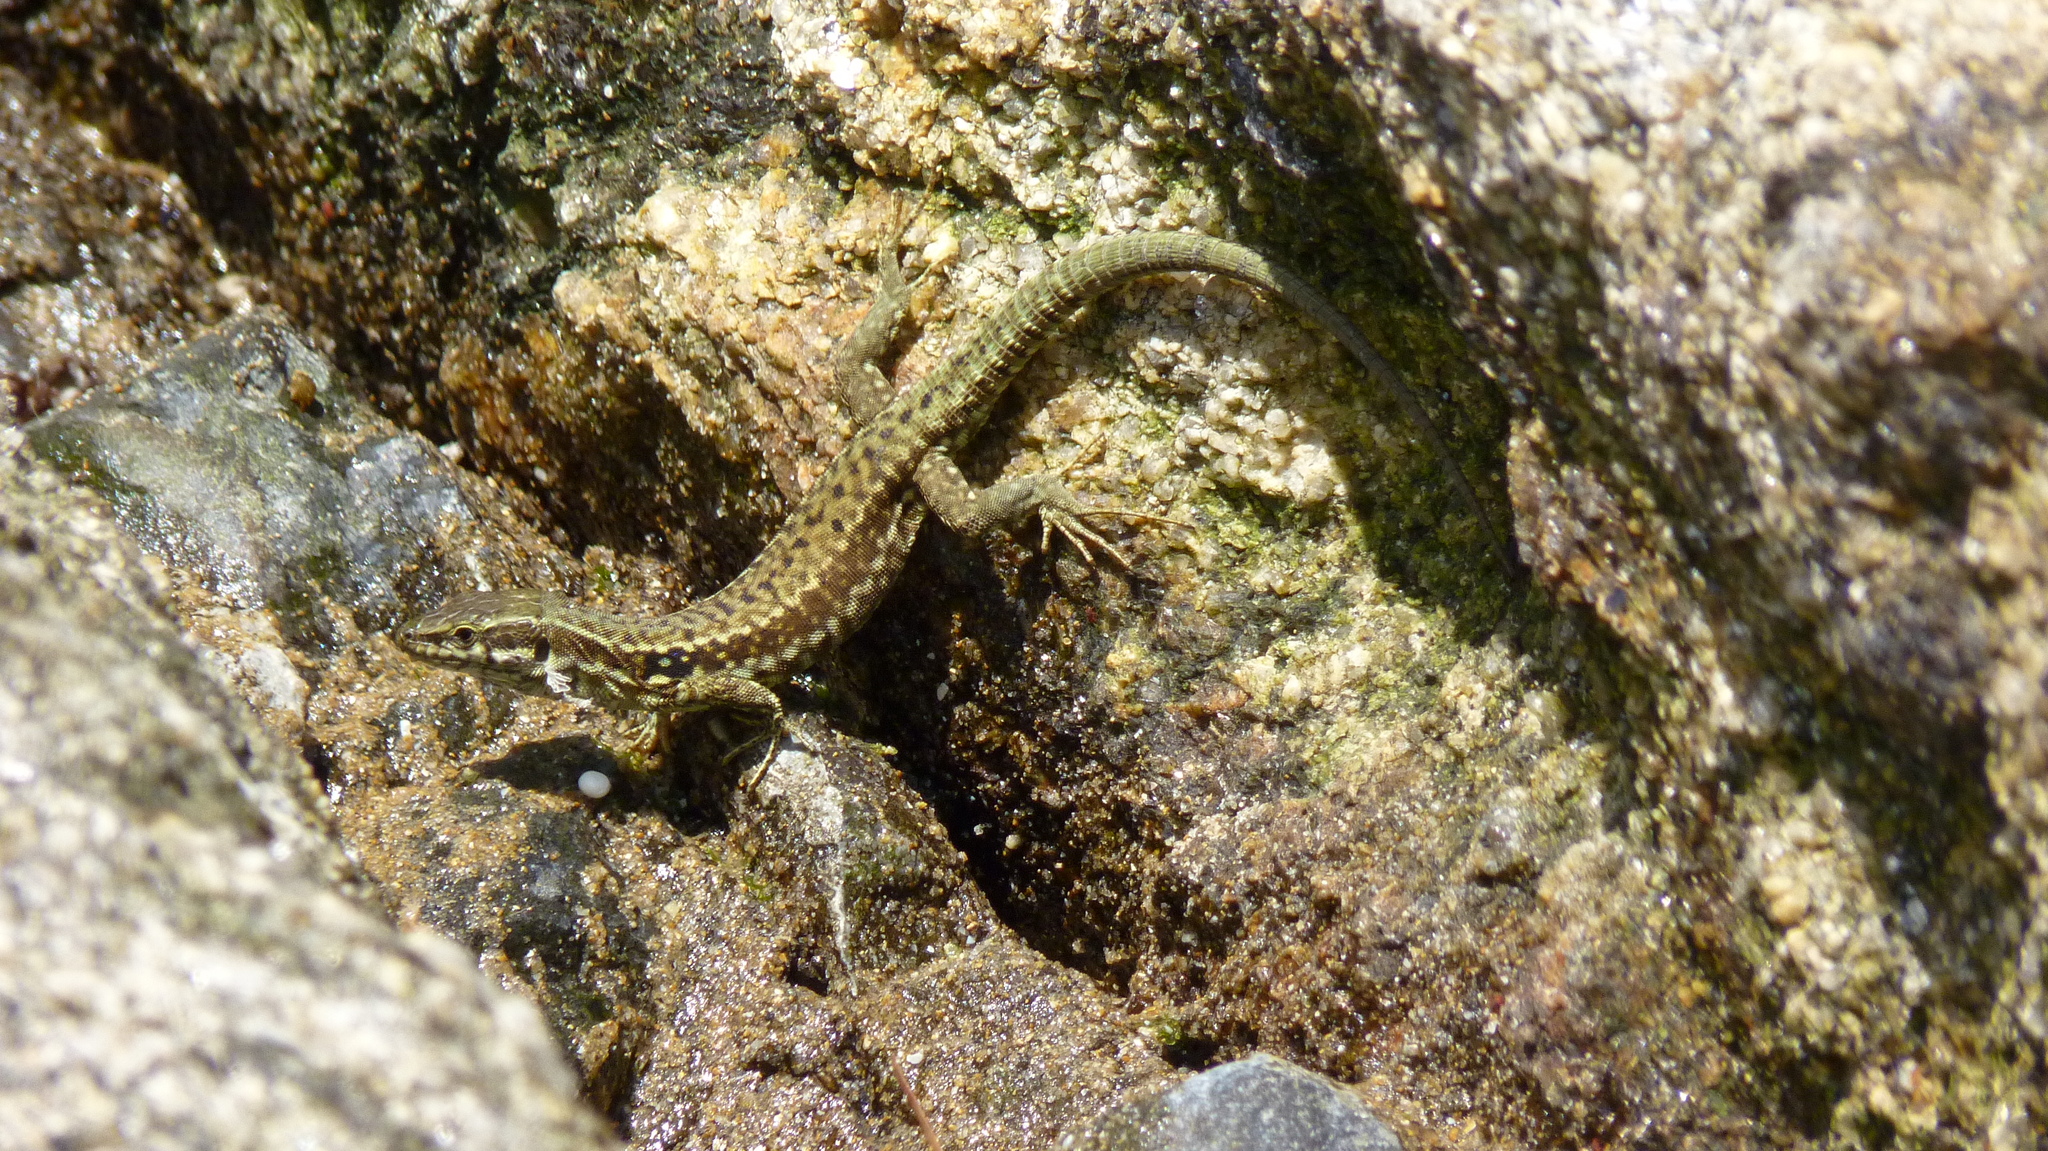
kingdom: Animalia
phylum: Chordata
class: Squamata
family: Lacertidae
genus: Podarcis
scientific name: Podarcis muralis
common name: Common wall lizard
